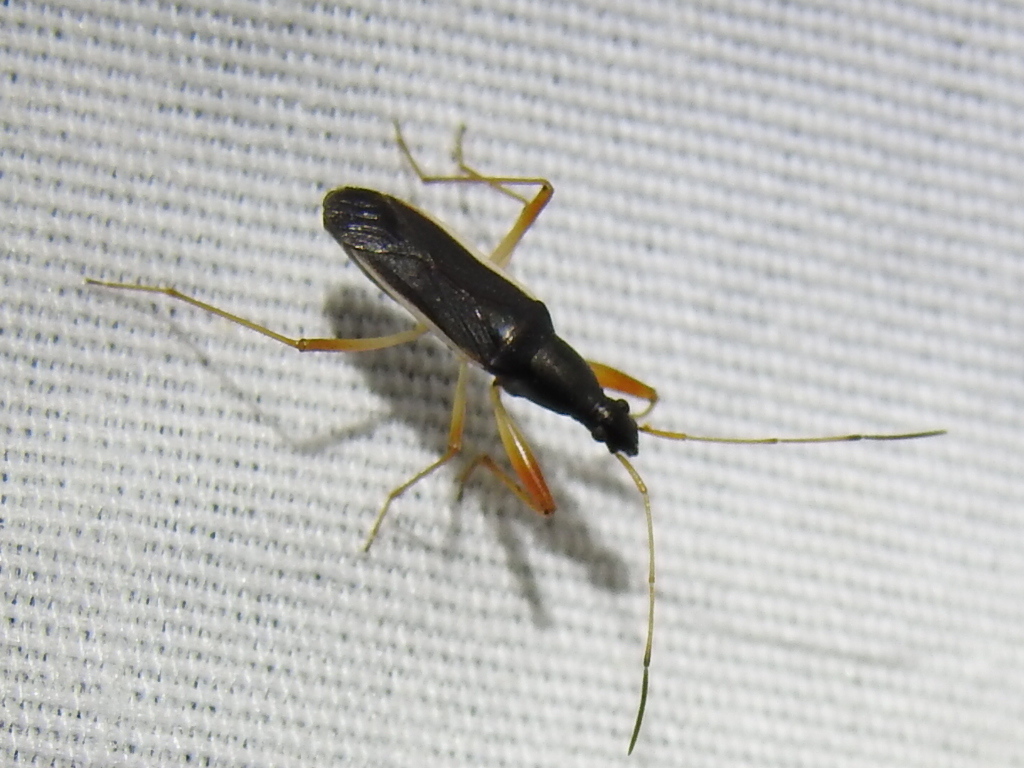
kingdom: Animalia
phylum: Arthropoda
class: Insecta
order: Hemiptera
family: Rhyparochromidae
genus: Cnemodus
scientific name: Cnemodus mavortius
